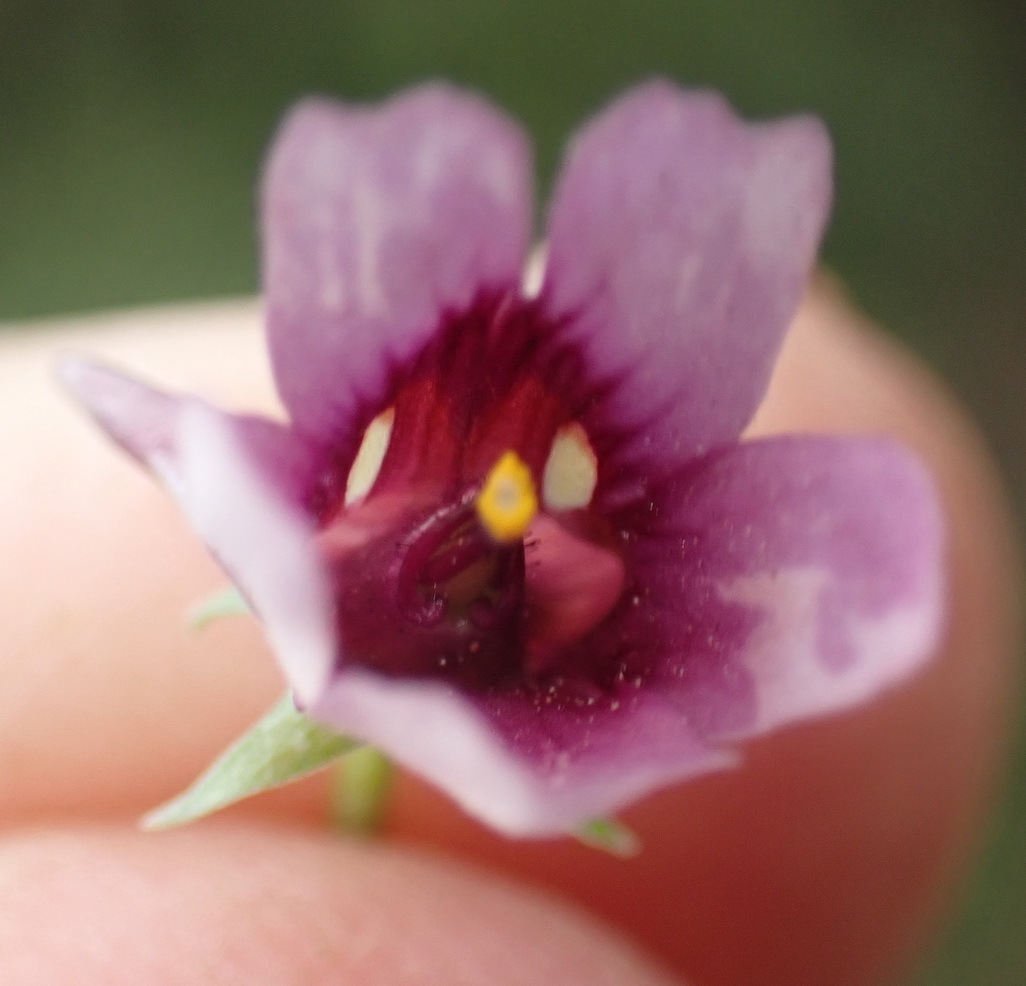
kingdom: Plantae
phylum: Tracheophyta
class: Magnoliopsida
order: Lamiales
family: Scrophulariaceae
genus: Diascia
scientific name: Diascia hexensis
